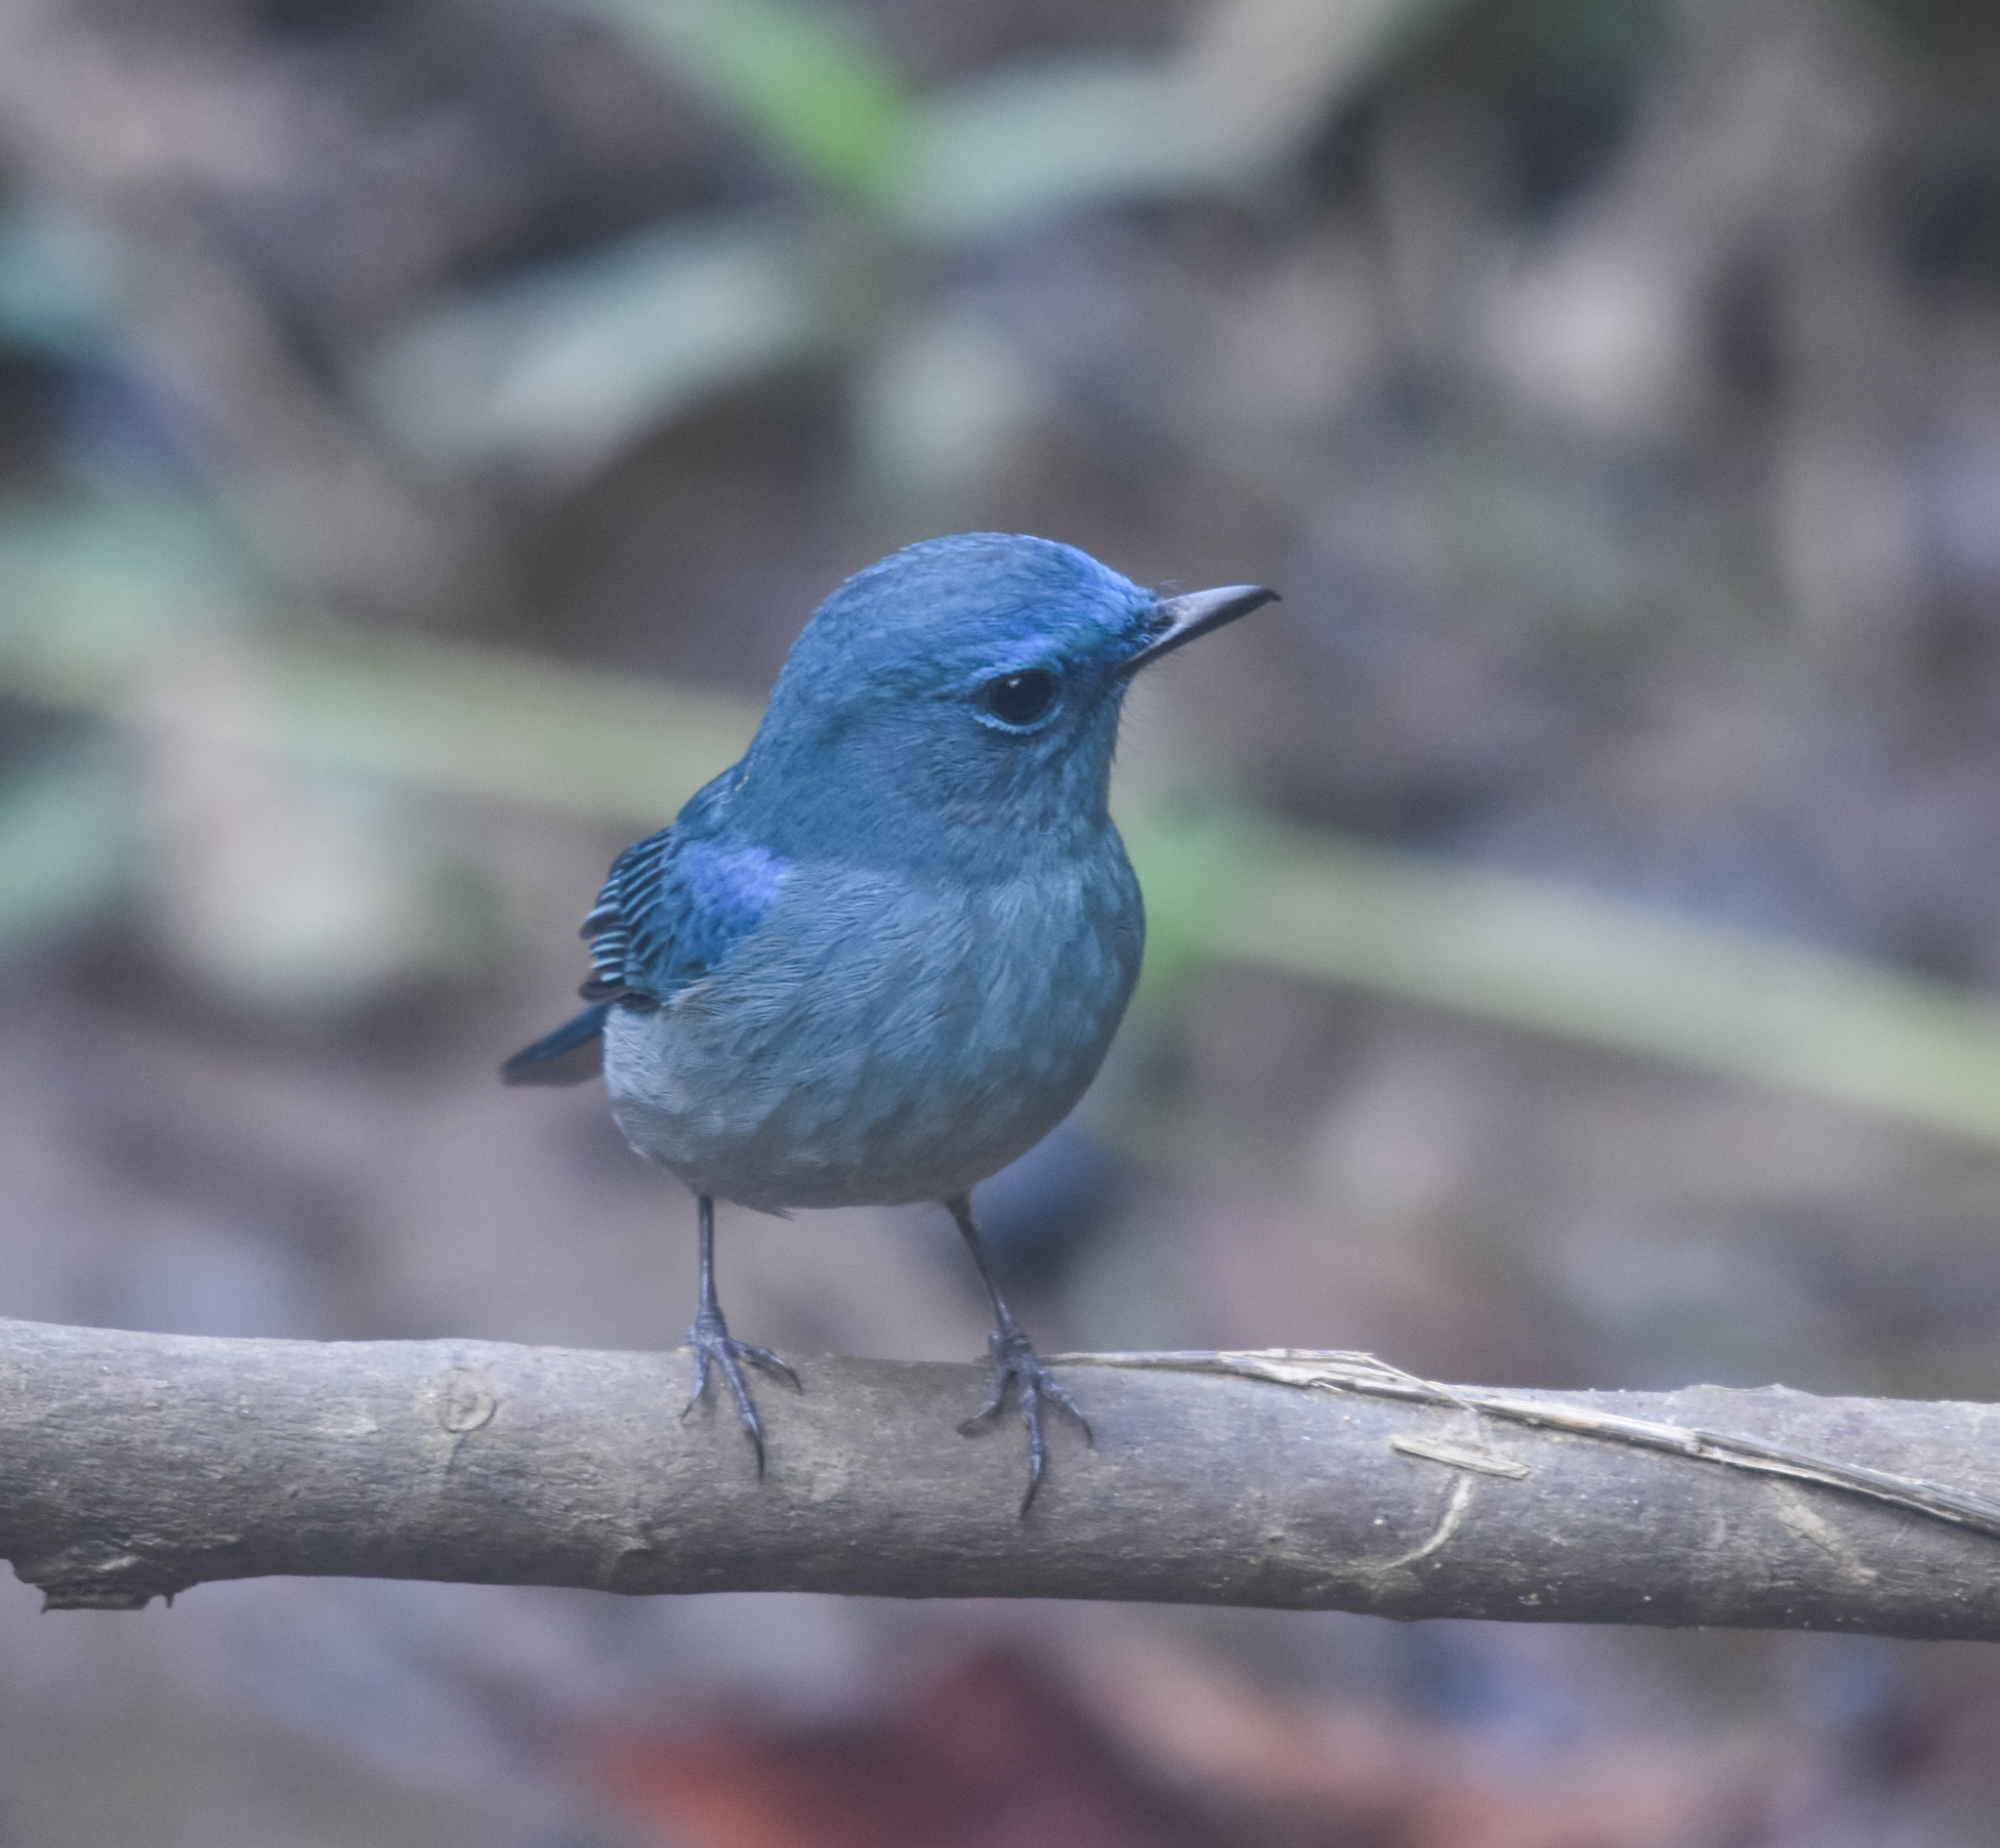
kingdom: Animalia
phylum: Chordata
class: Aves
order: Passeriformes
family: Muscicapidae
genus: Cyornis
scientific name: Cyornis unicolor
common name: Pale blue flycatcher
